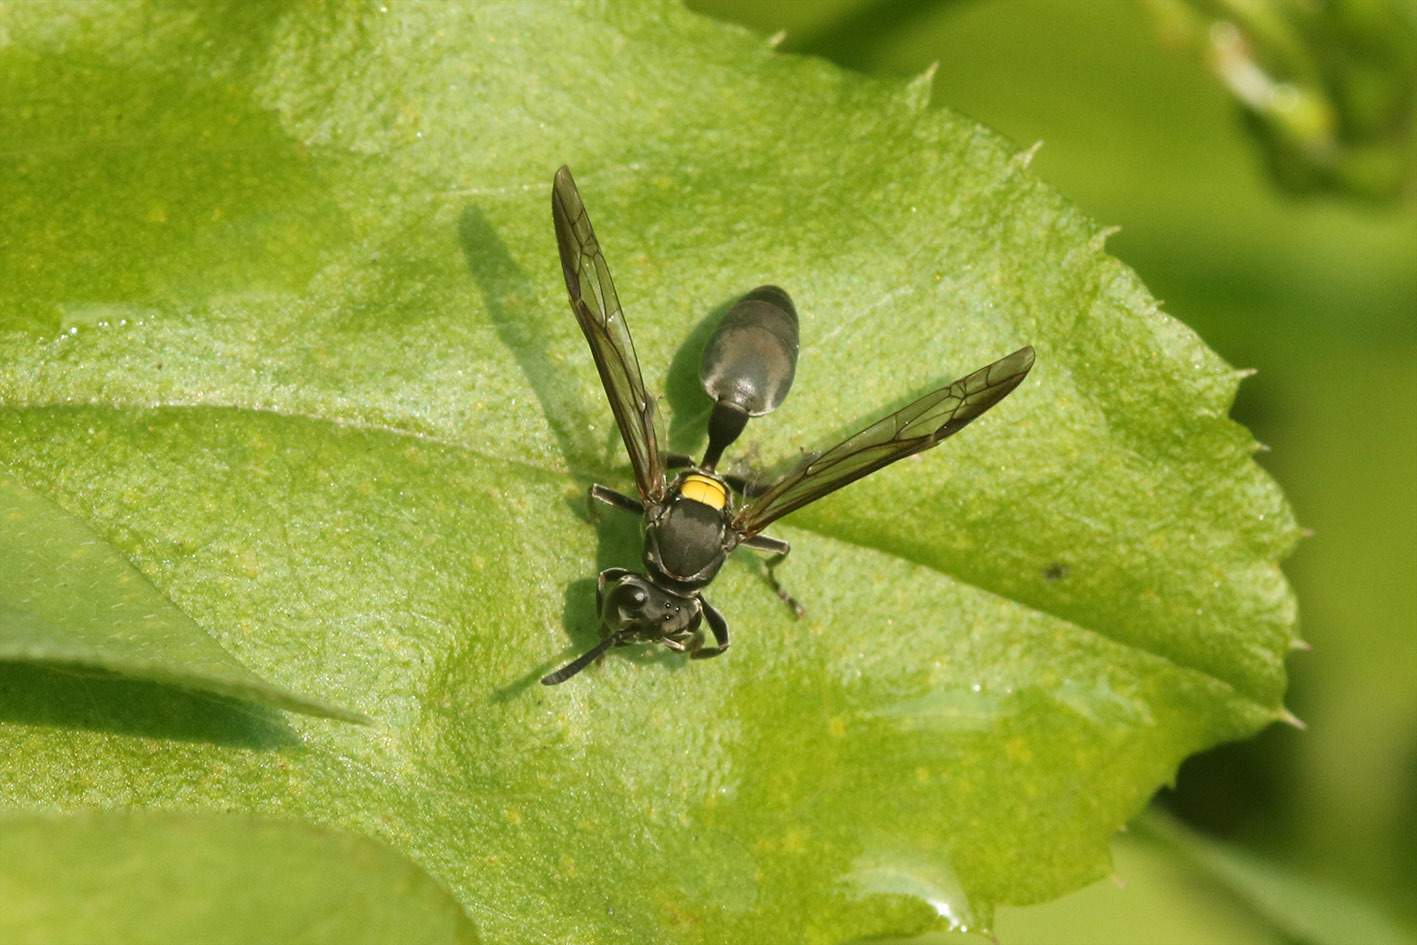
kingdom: Animalia
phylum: Arthropoda
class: Insecta
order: Hymenoptera
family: Eumenidae
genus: Polybia
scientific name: Polybia scutellaris
